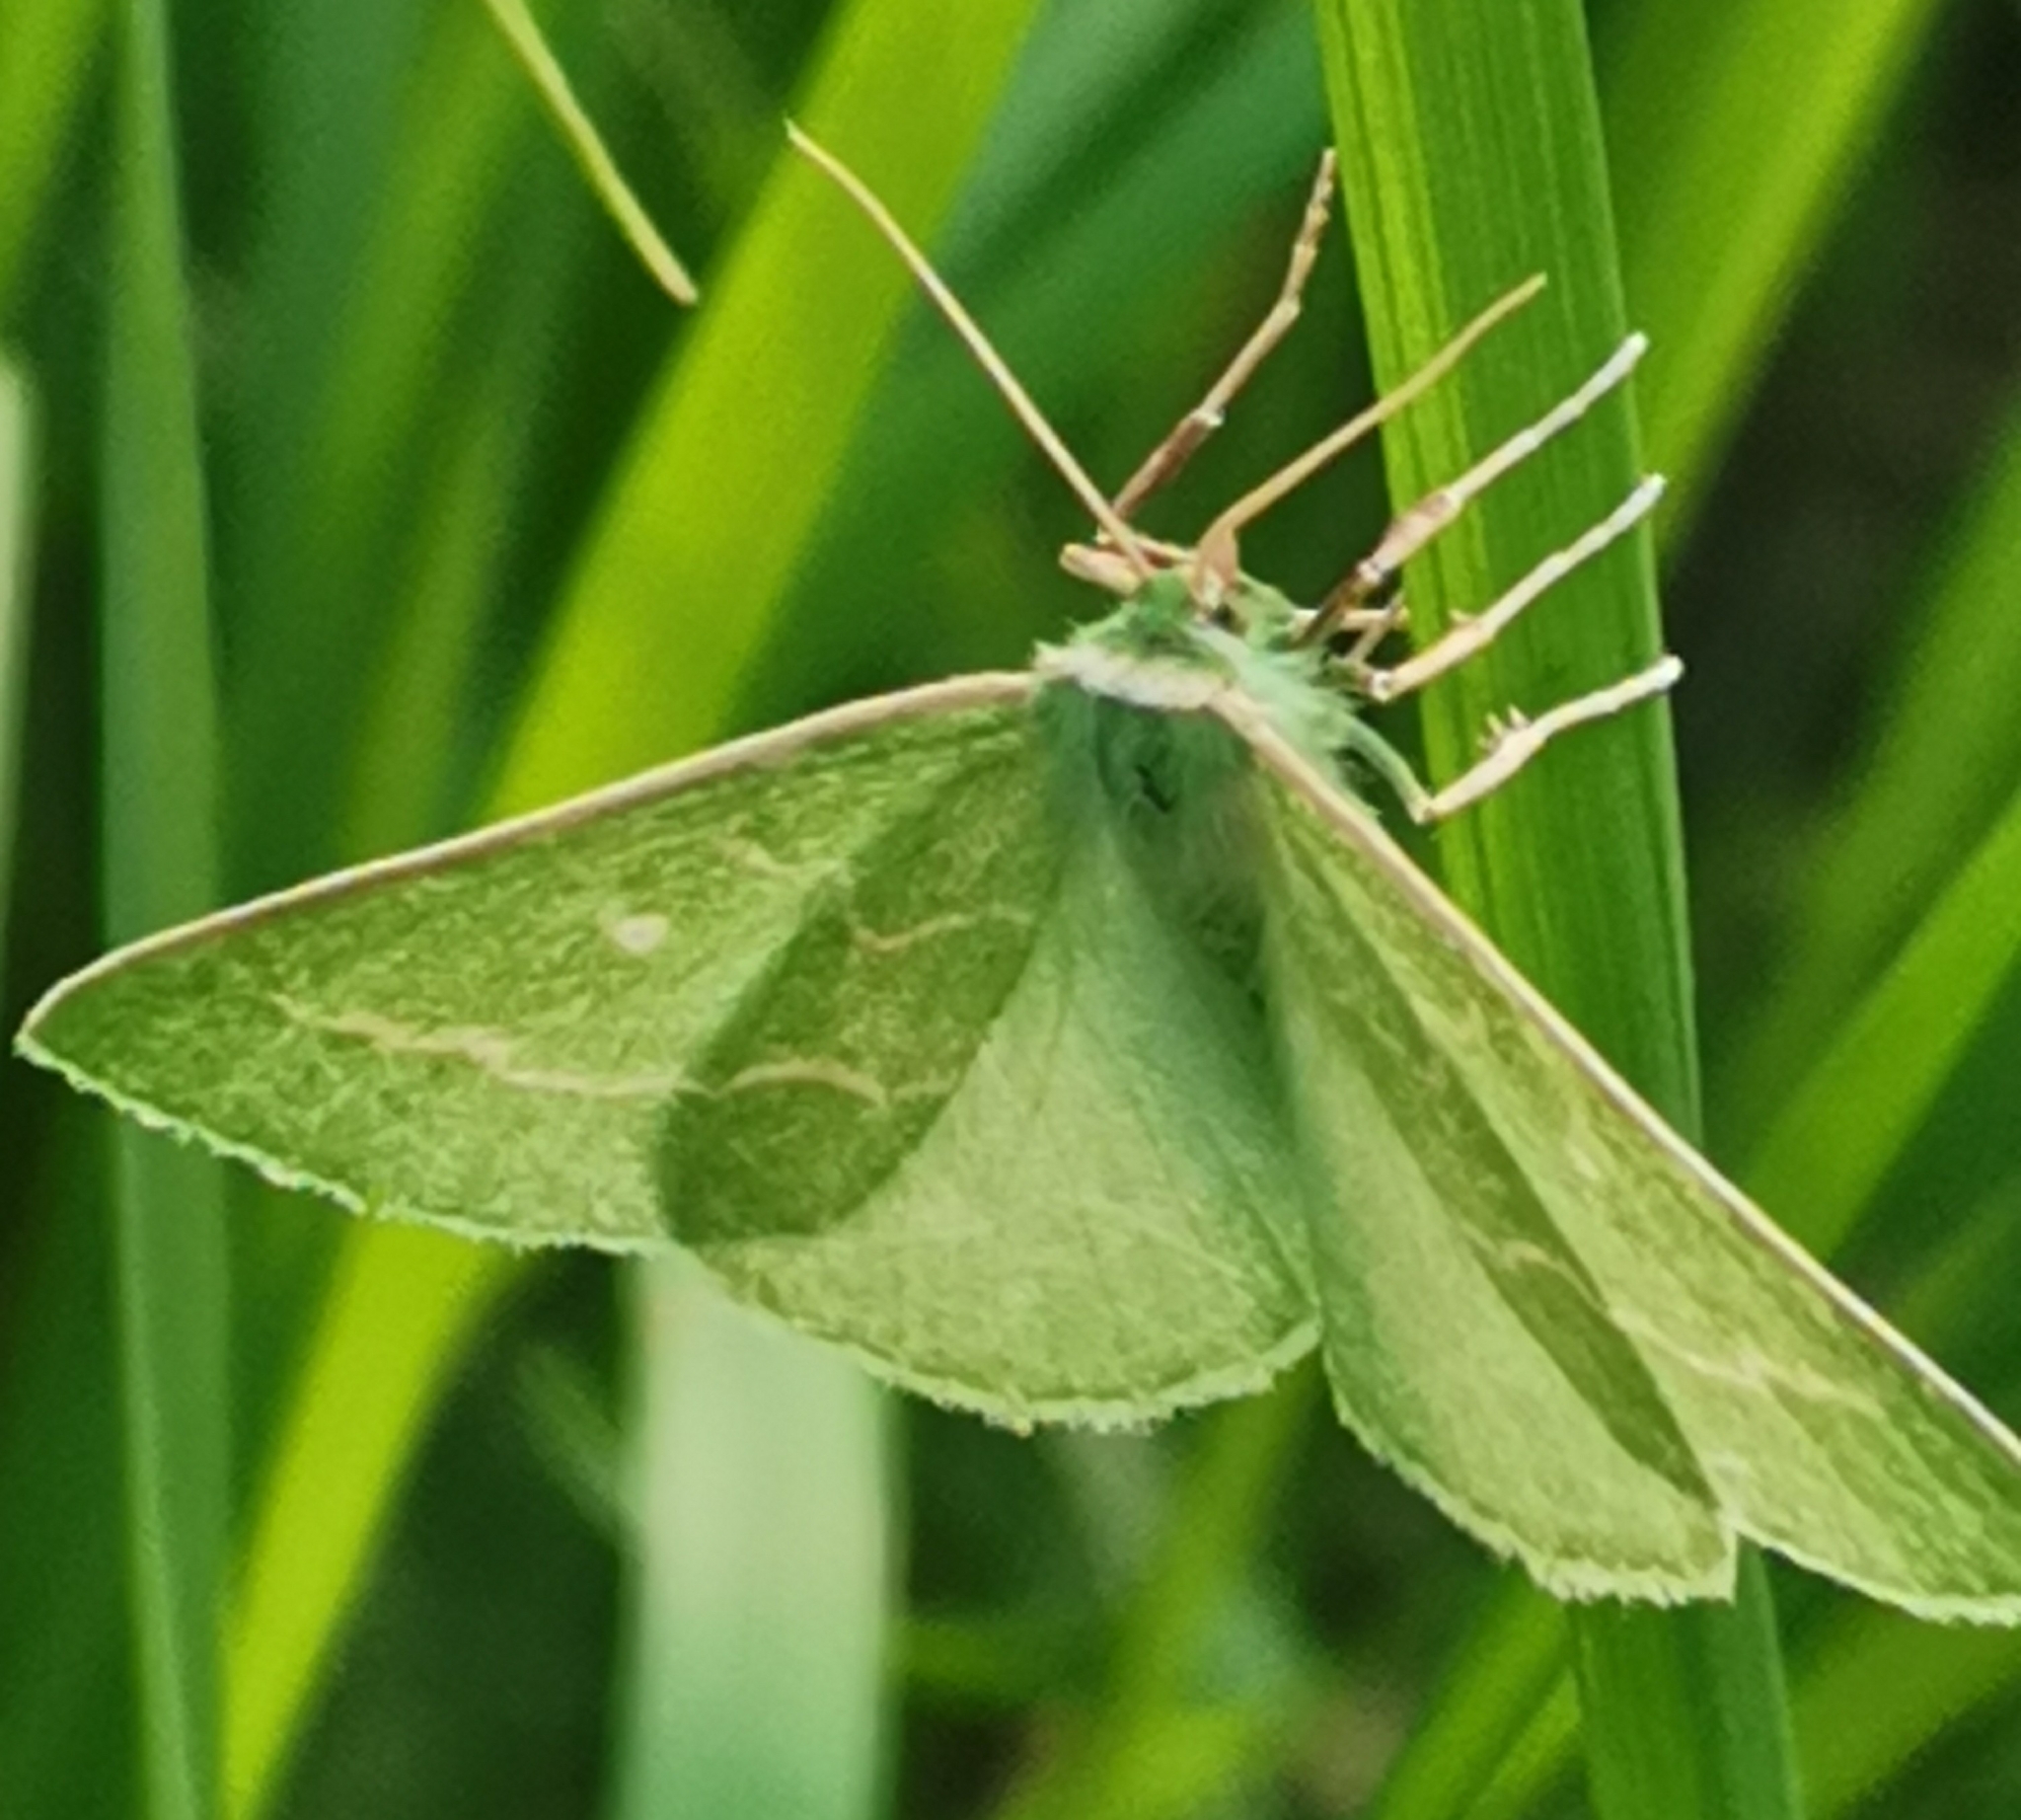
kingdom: Animalia
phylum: Arthropoda
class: Insecta
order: Lepidoptera
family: Geometridae
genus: Thetidia
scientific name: Thetidia smaragdaria
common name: Essex emerald
